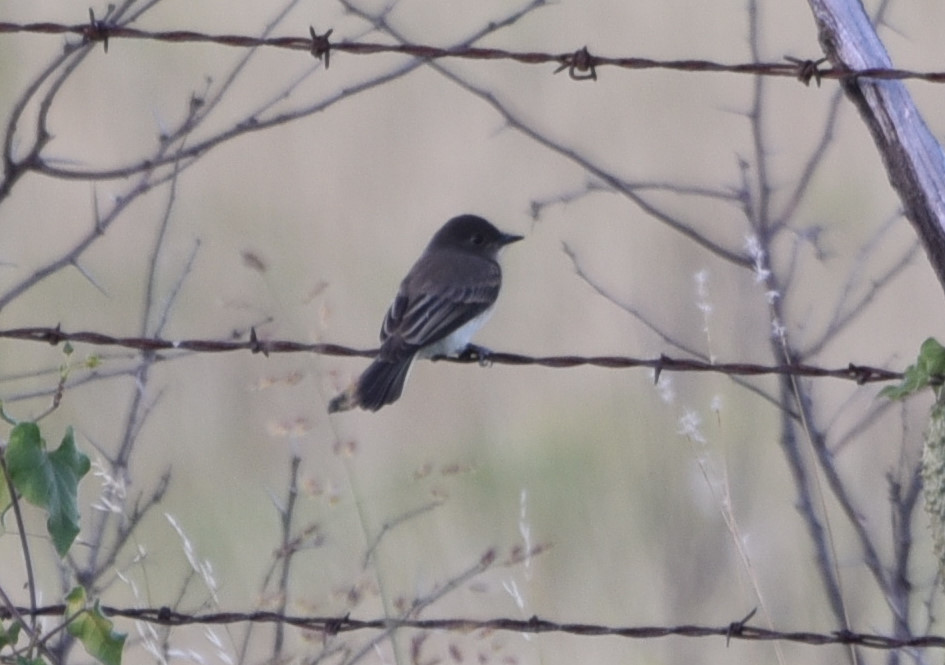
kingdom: Animalia
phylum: Chordata
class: Aves
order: Passeriformes
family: Tyrannidae
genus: Sayornis
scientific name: Sayornis phoebe
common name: Eastern phoebe
